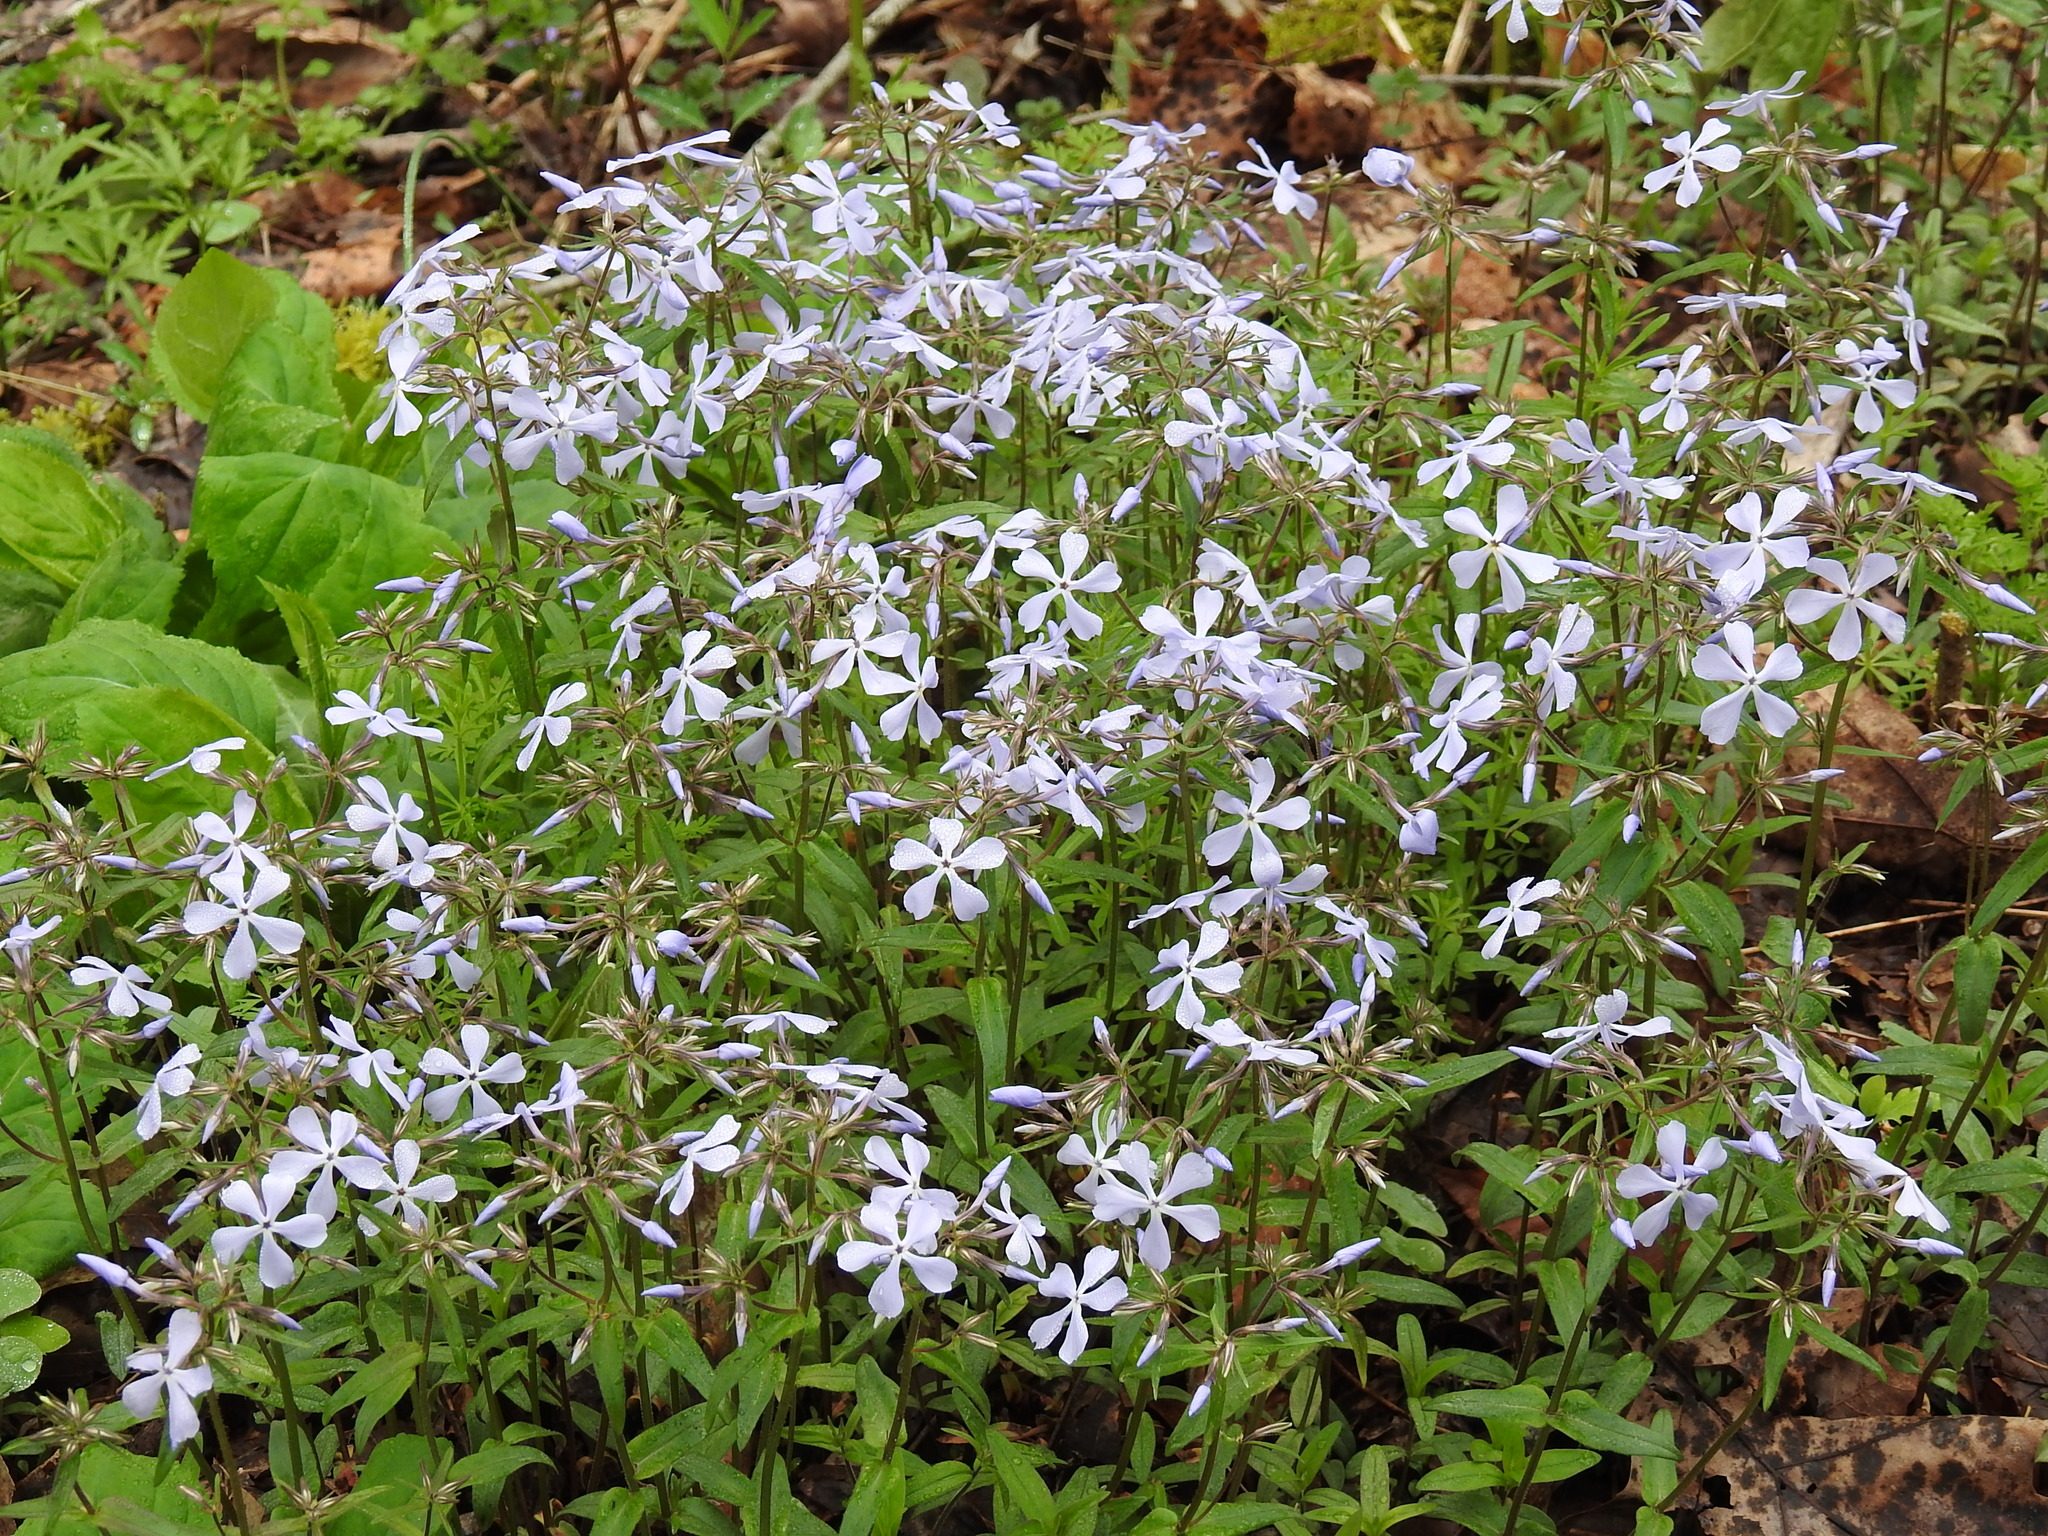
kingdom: Plantae
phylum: Tracheophyta
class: Magnoliopsida
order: Ericales
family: Polemoniaceae
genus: Phlox
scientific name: Phlox divaricata
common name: Blue phlox
